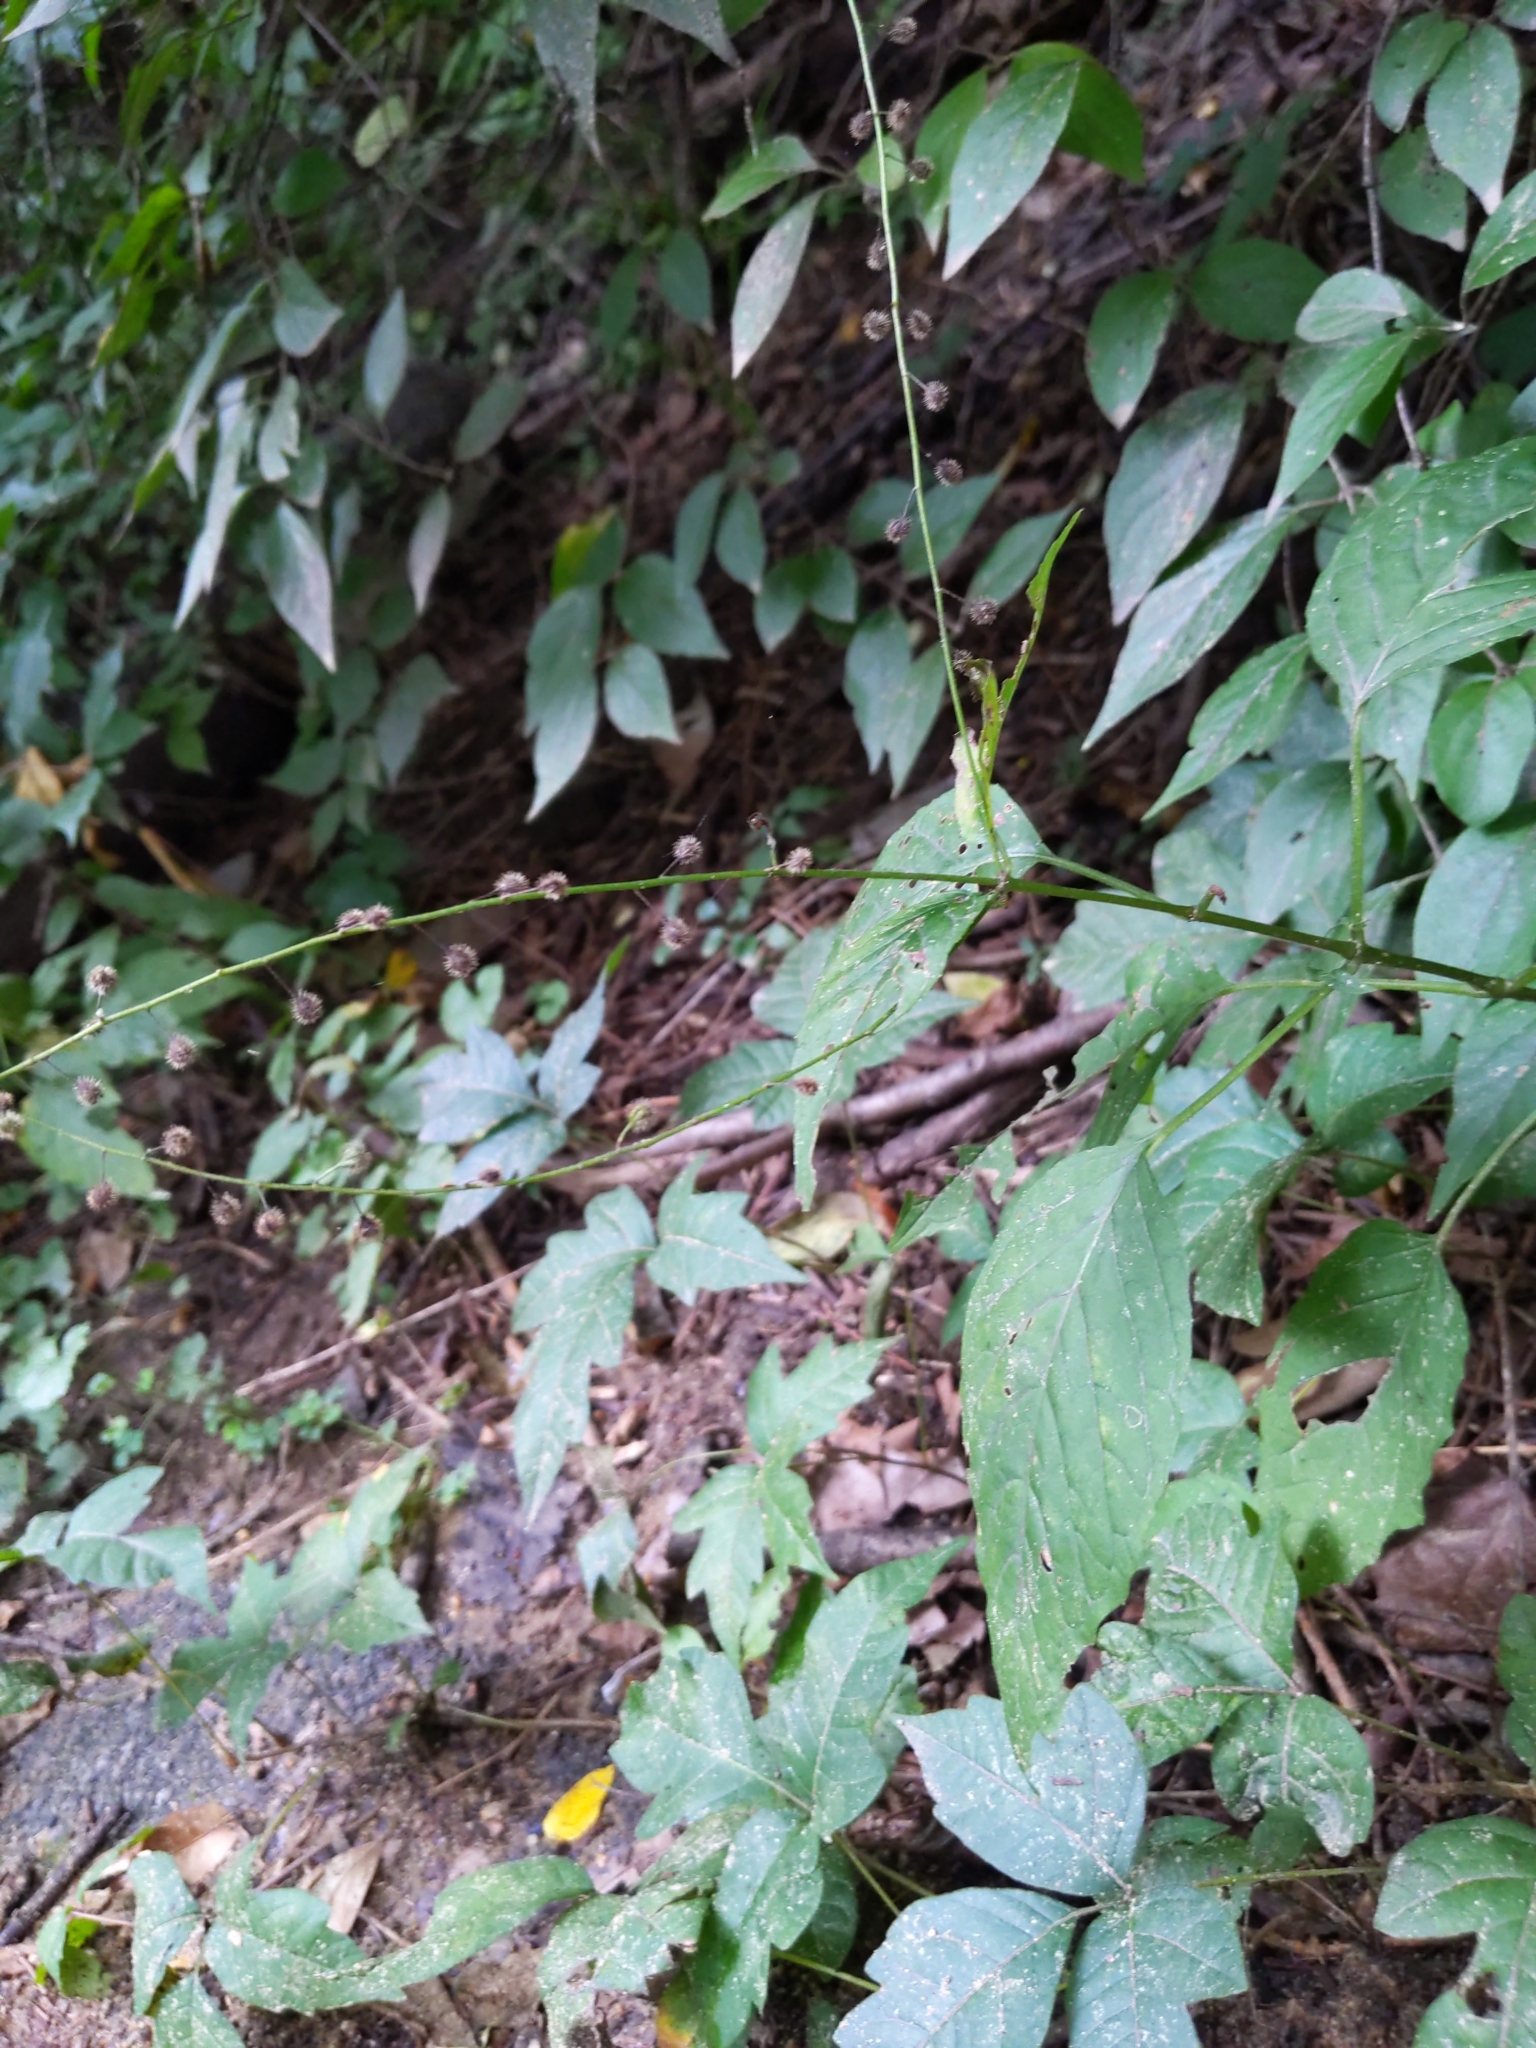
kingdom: Plantae
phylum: Tracheophyta
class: Magnoliopsida
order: Myrtales
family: Onagraceae
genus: Circaea
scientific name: Circaea canadensis
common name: Broad-leaved enchanter's nightshade
